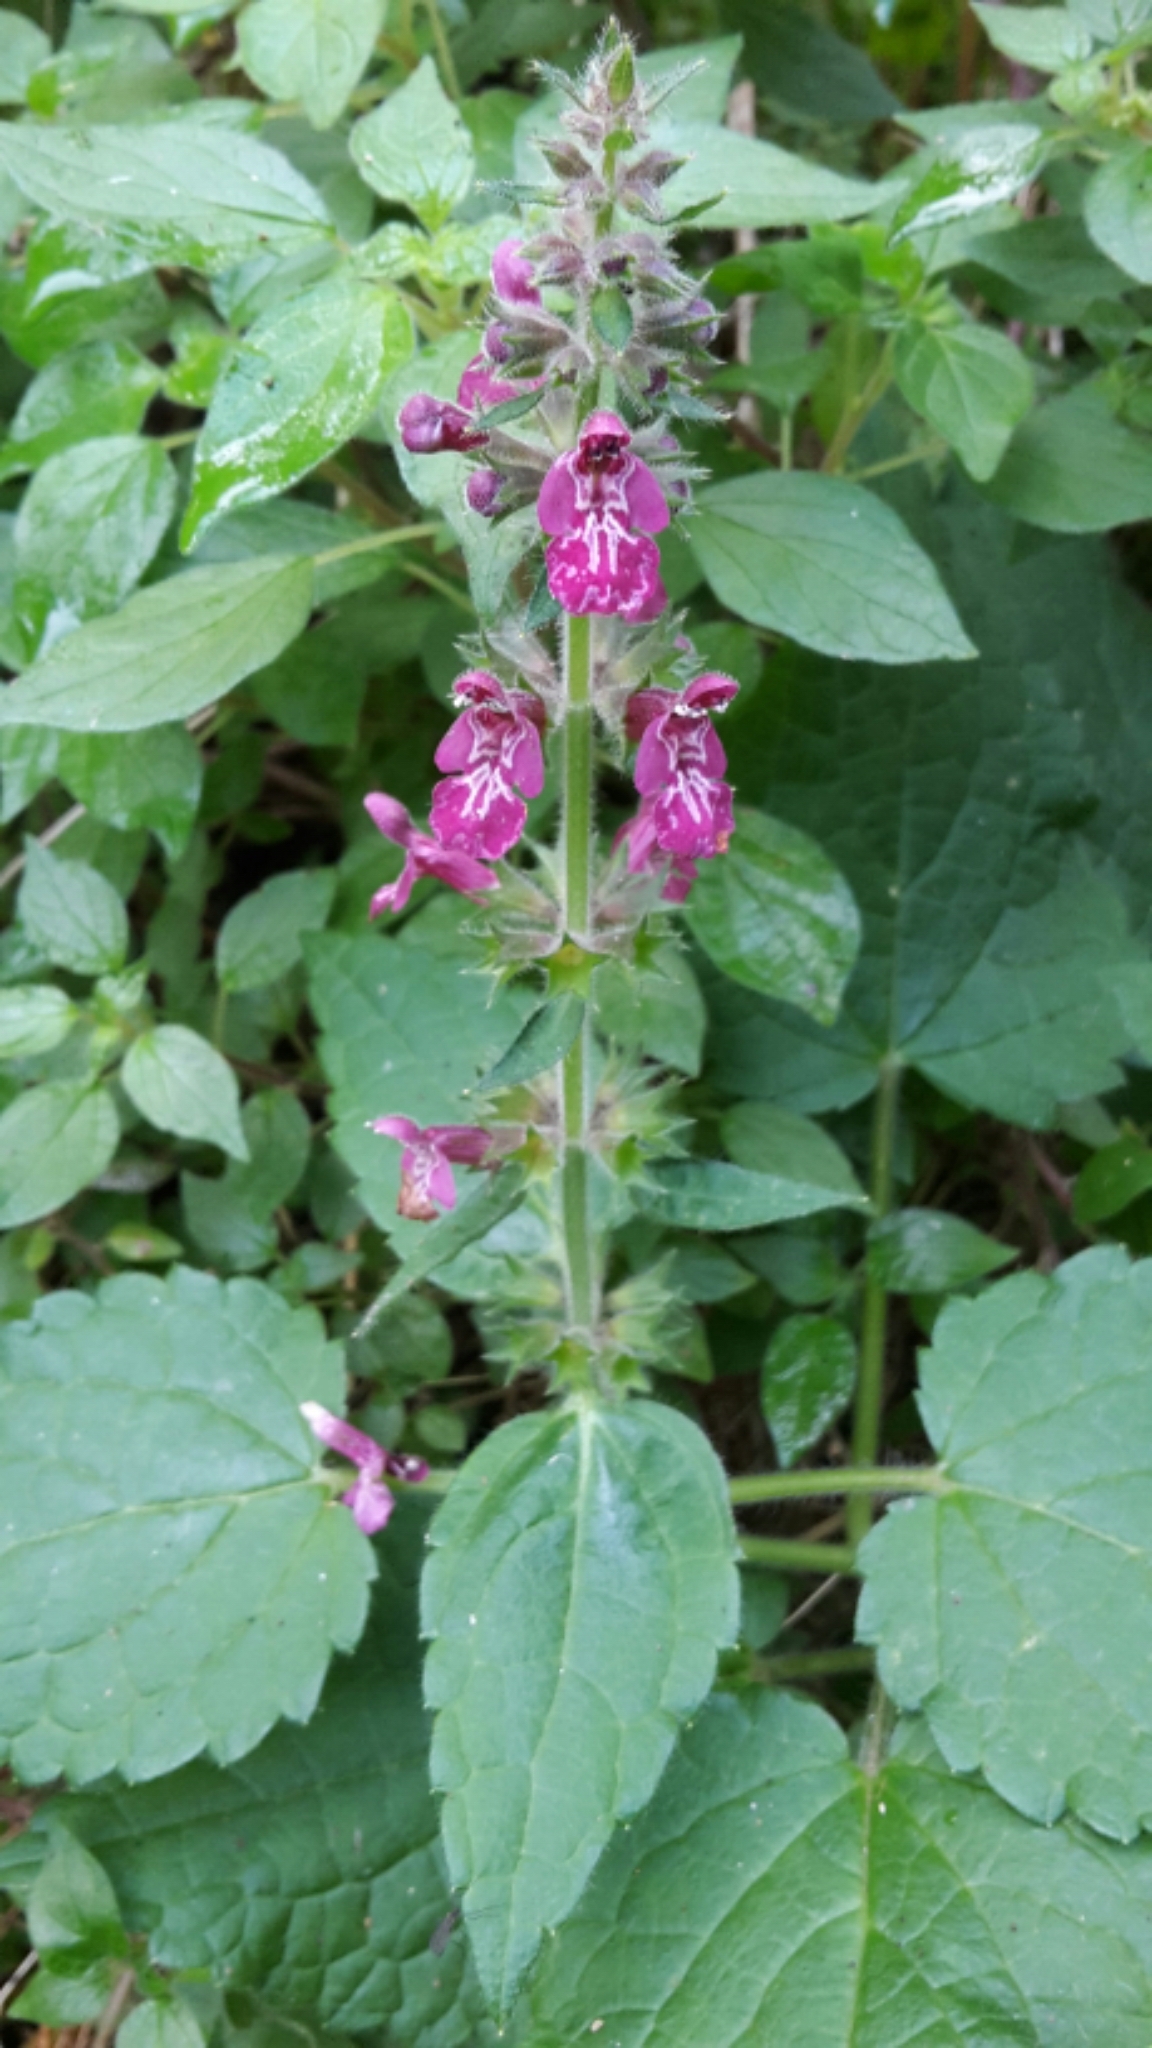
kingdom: Plantae
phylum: Tracheophyta
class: Magnoliopsida
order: Lamiales
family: Lamiaceae
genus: Stachys
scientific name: Stachys sylvatica
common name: Hedge woundwort
